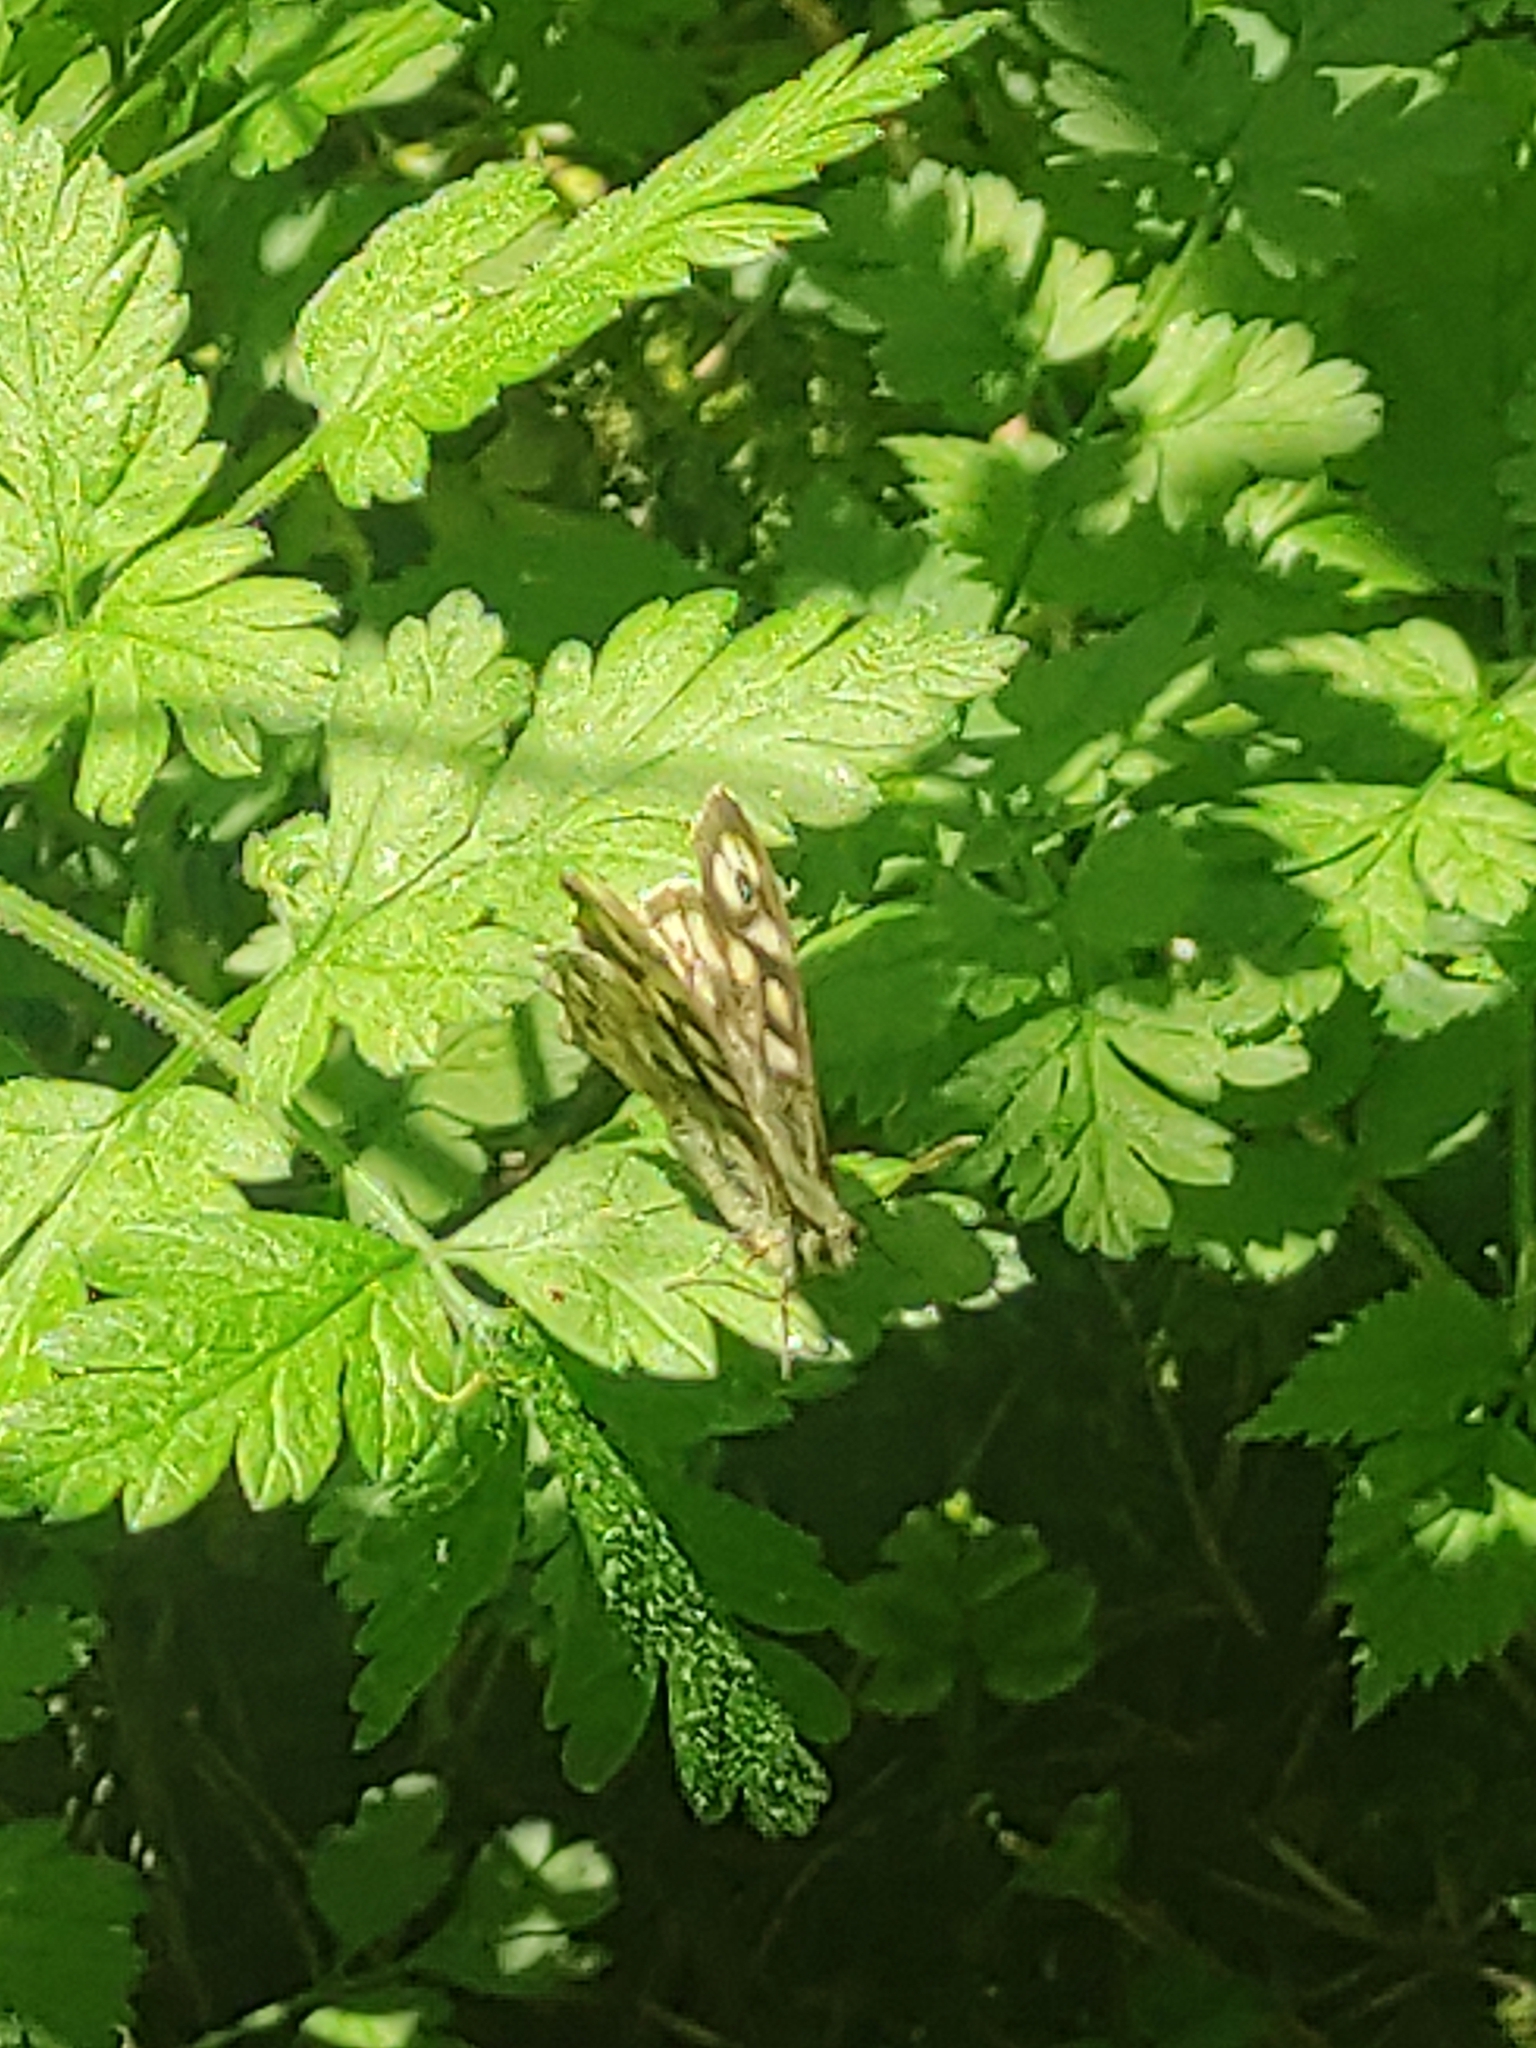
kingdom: Animalia
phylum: Arthropoda
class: Insecta
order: Lepidoptera
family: Nymphalidae
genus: Pararge
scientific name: Pararge aegeria
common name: Speckled wood
